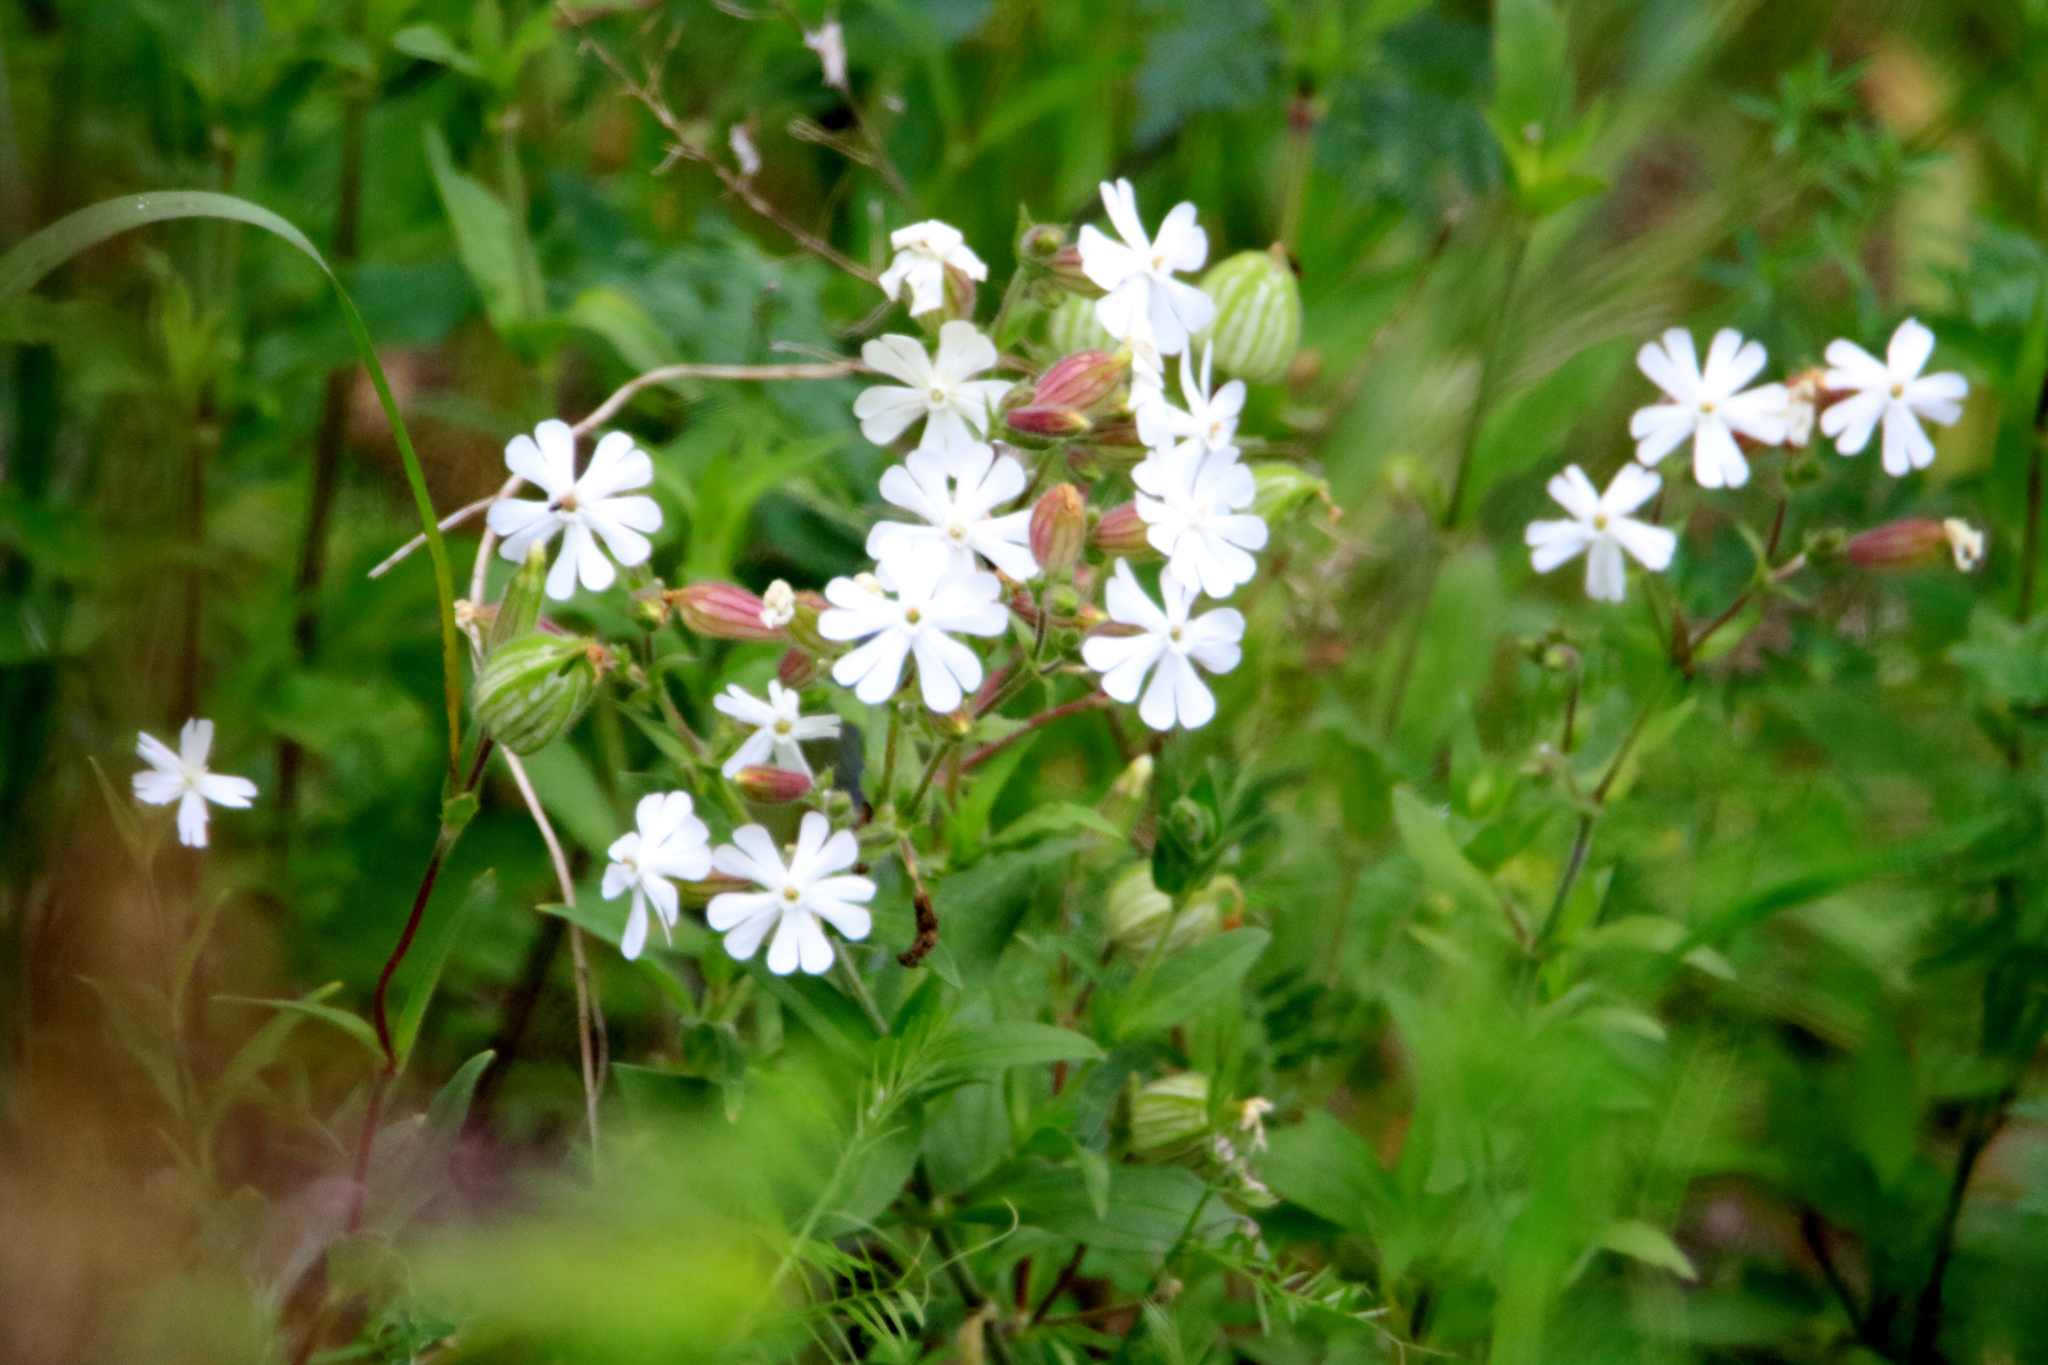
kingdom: Plantae
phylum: Tracheophyta
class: Magnoliopsida
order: Caryophyllales
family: Caryophyllaceae
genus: Silene
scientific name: Silene latifolia
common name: White campion
